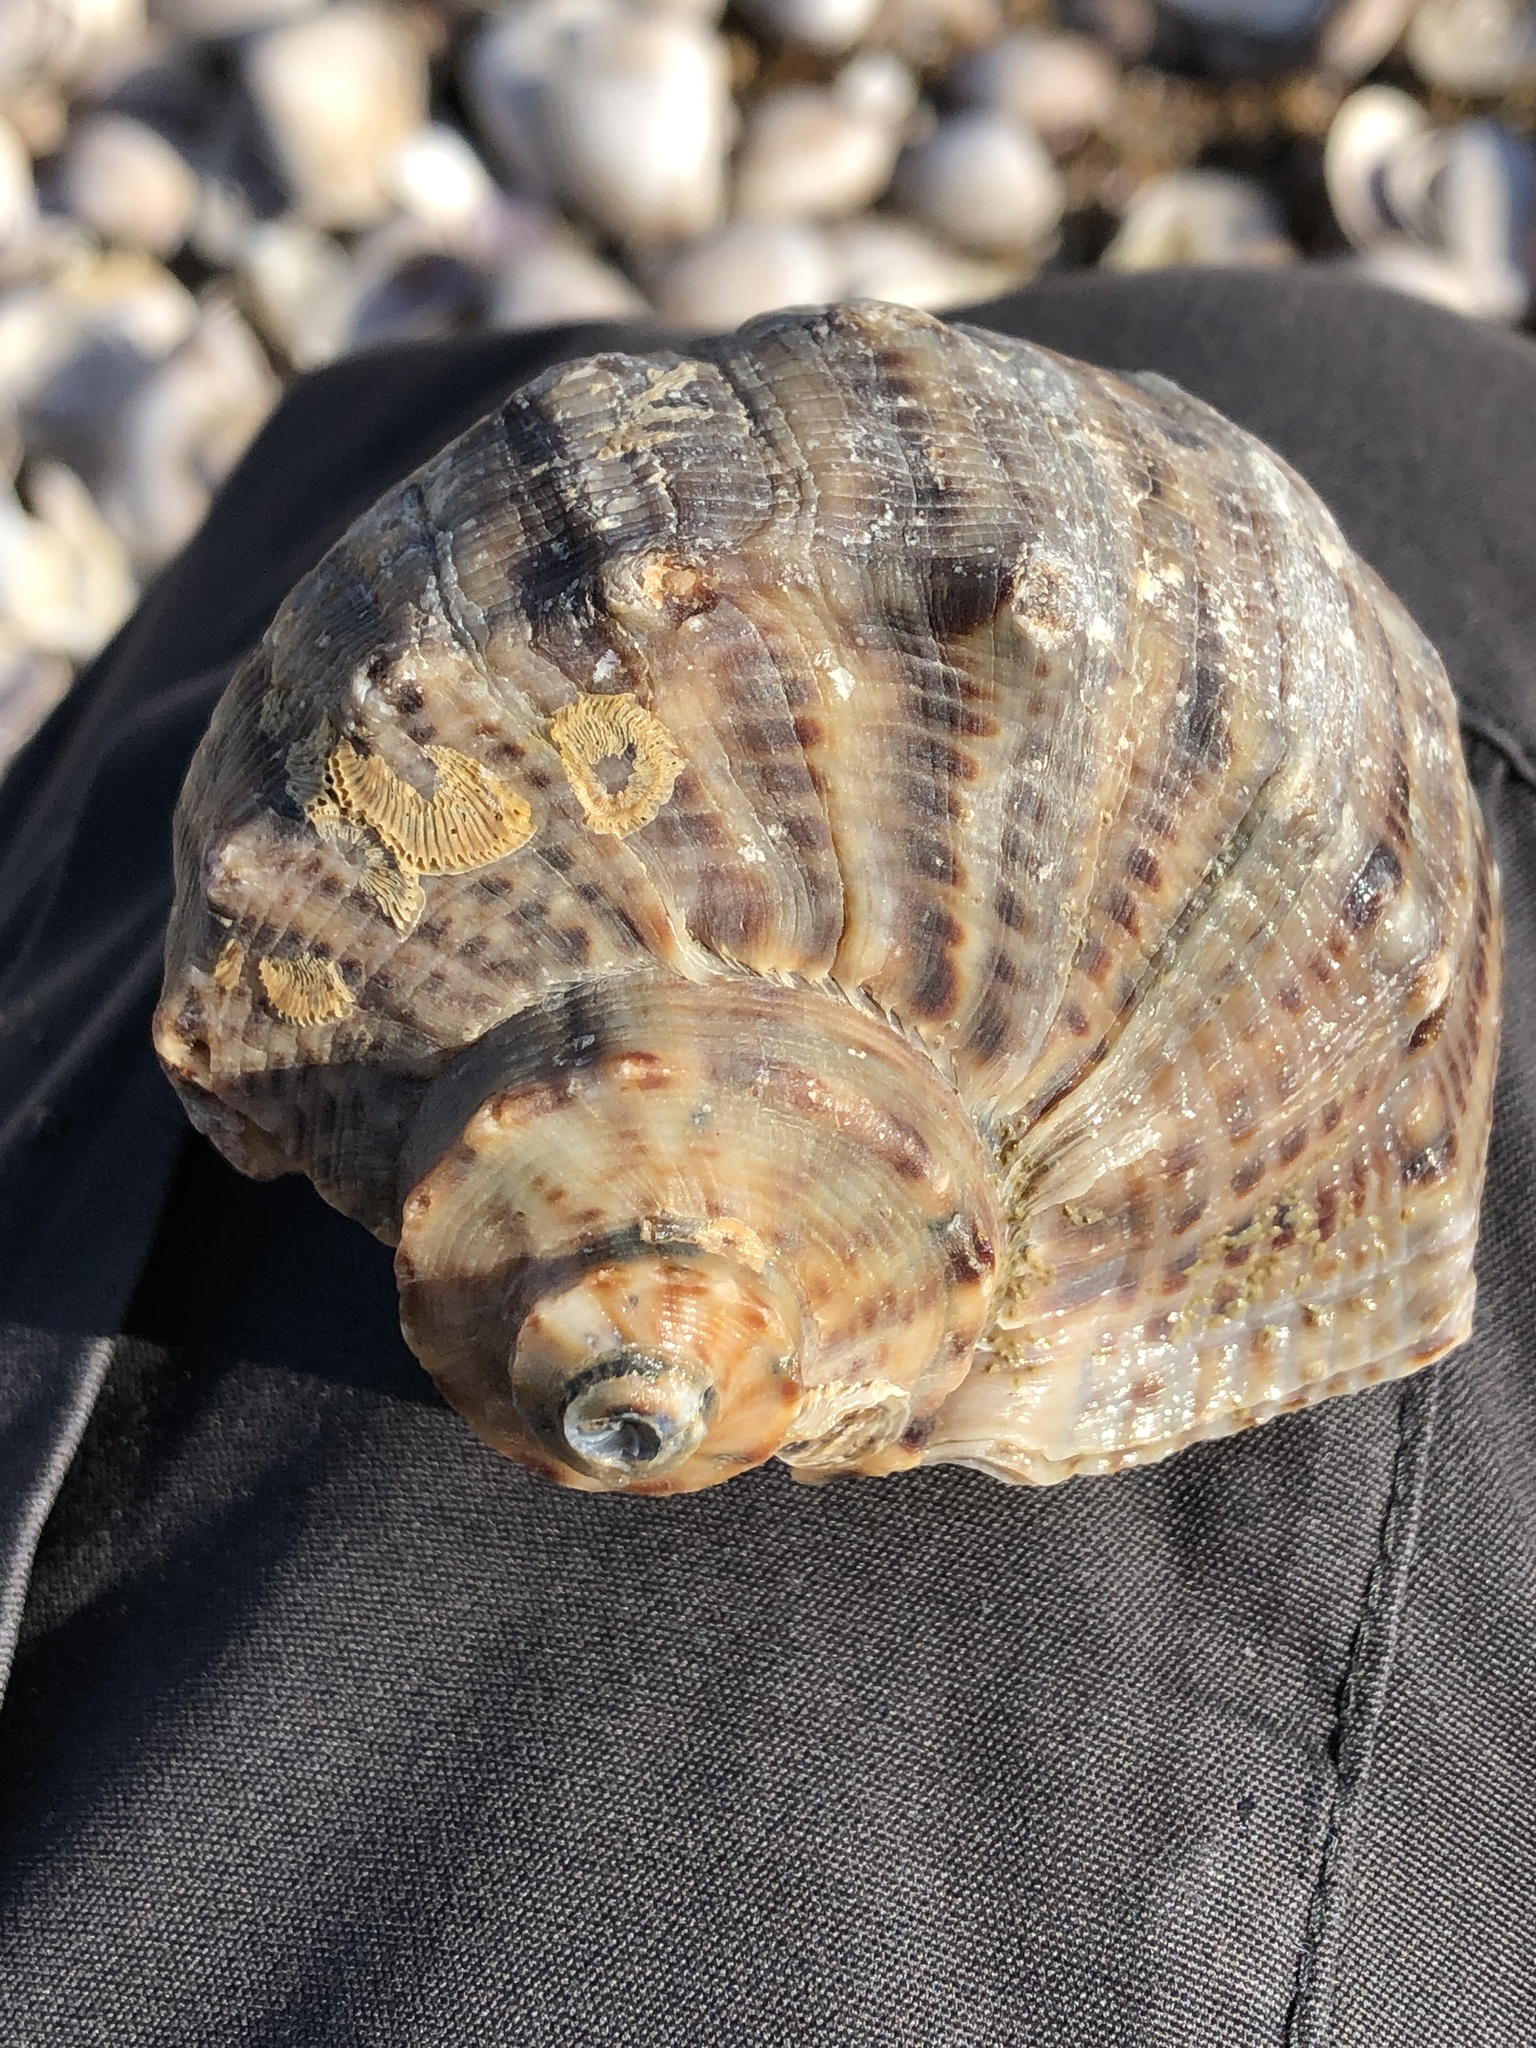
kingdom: Animalia
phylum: Mollusca
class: Gastropoda
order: Neogastropoda
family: Muricidae
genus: Rapana
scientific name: Rapana venosa
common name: Veined rapa whelk
